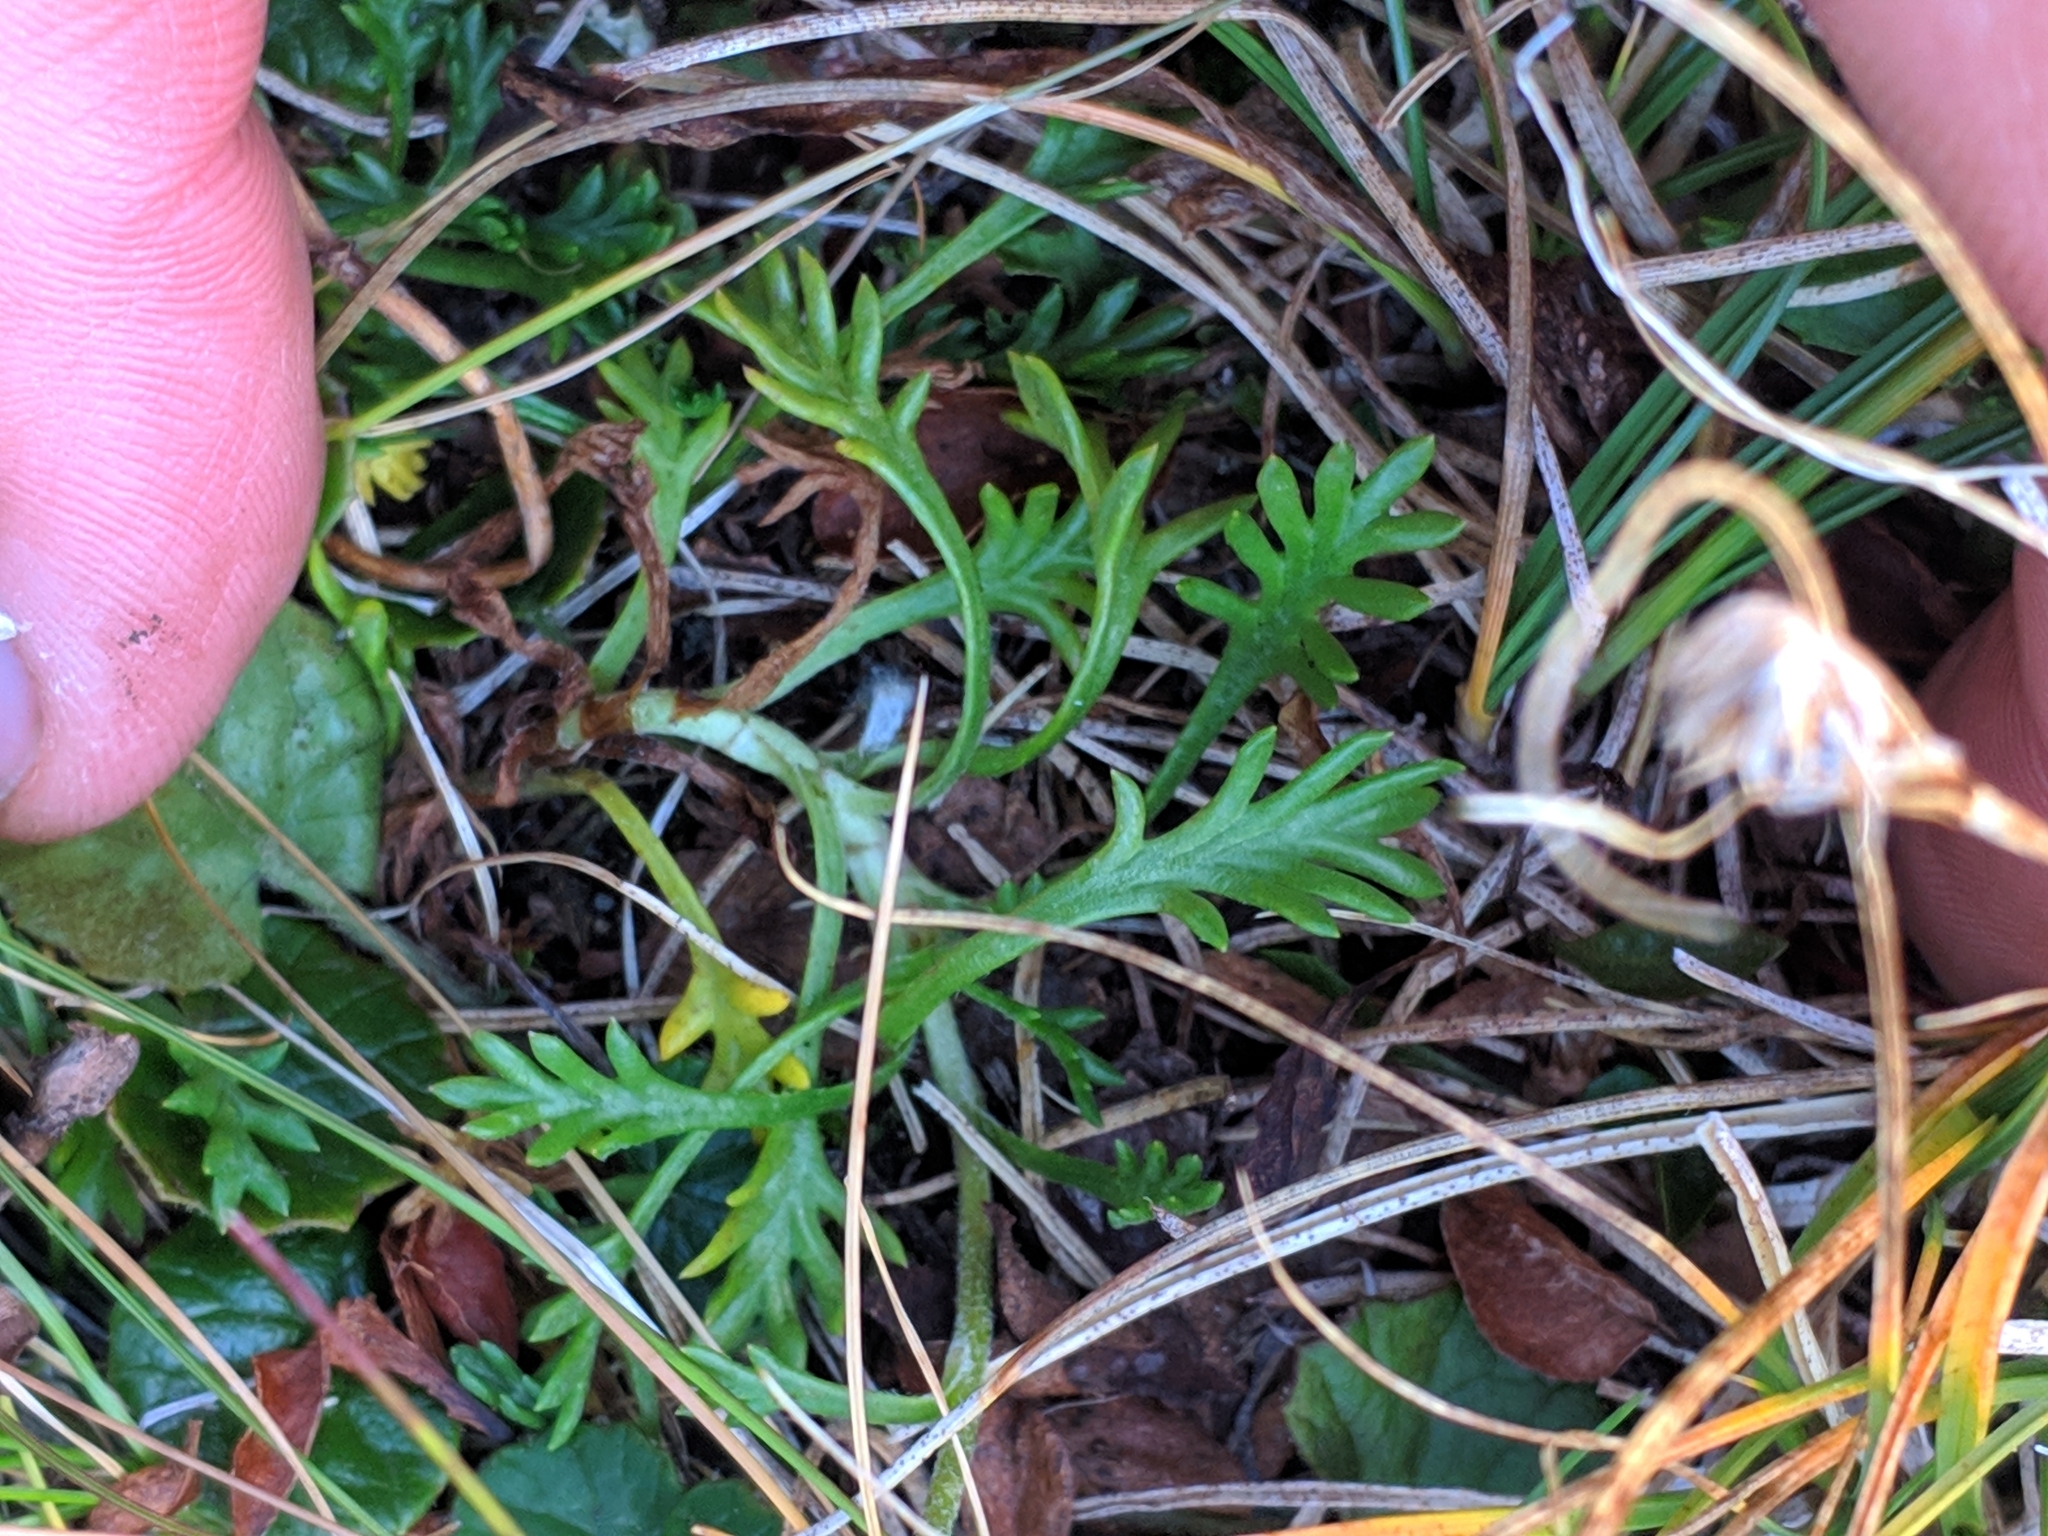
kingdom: Plantae
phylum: Tracheophyta
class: Magnoliopsida
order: Asterales
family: Asteraceae
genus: Leucanthemopsis
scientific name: Leucanthemopsis alpina
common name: Alpine moon daisy
